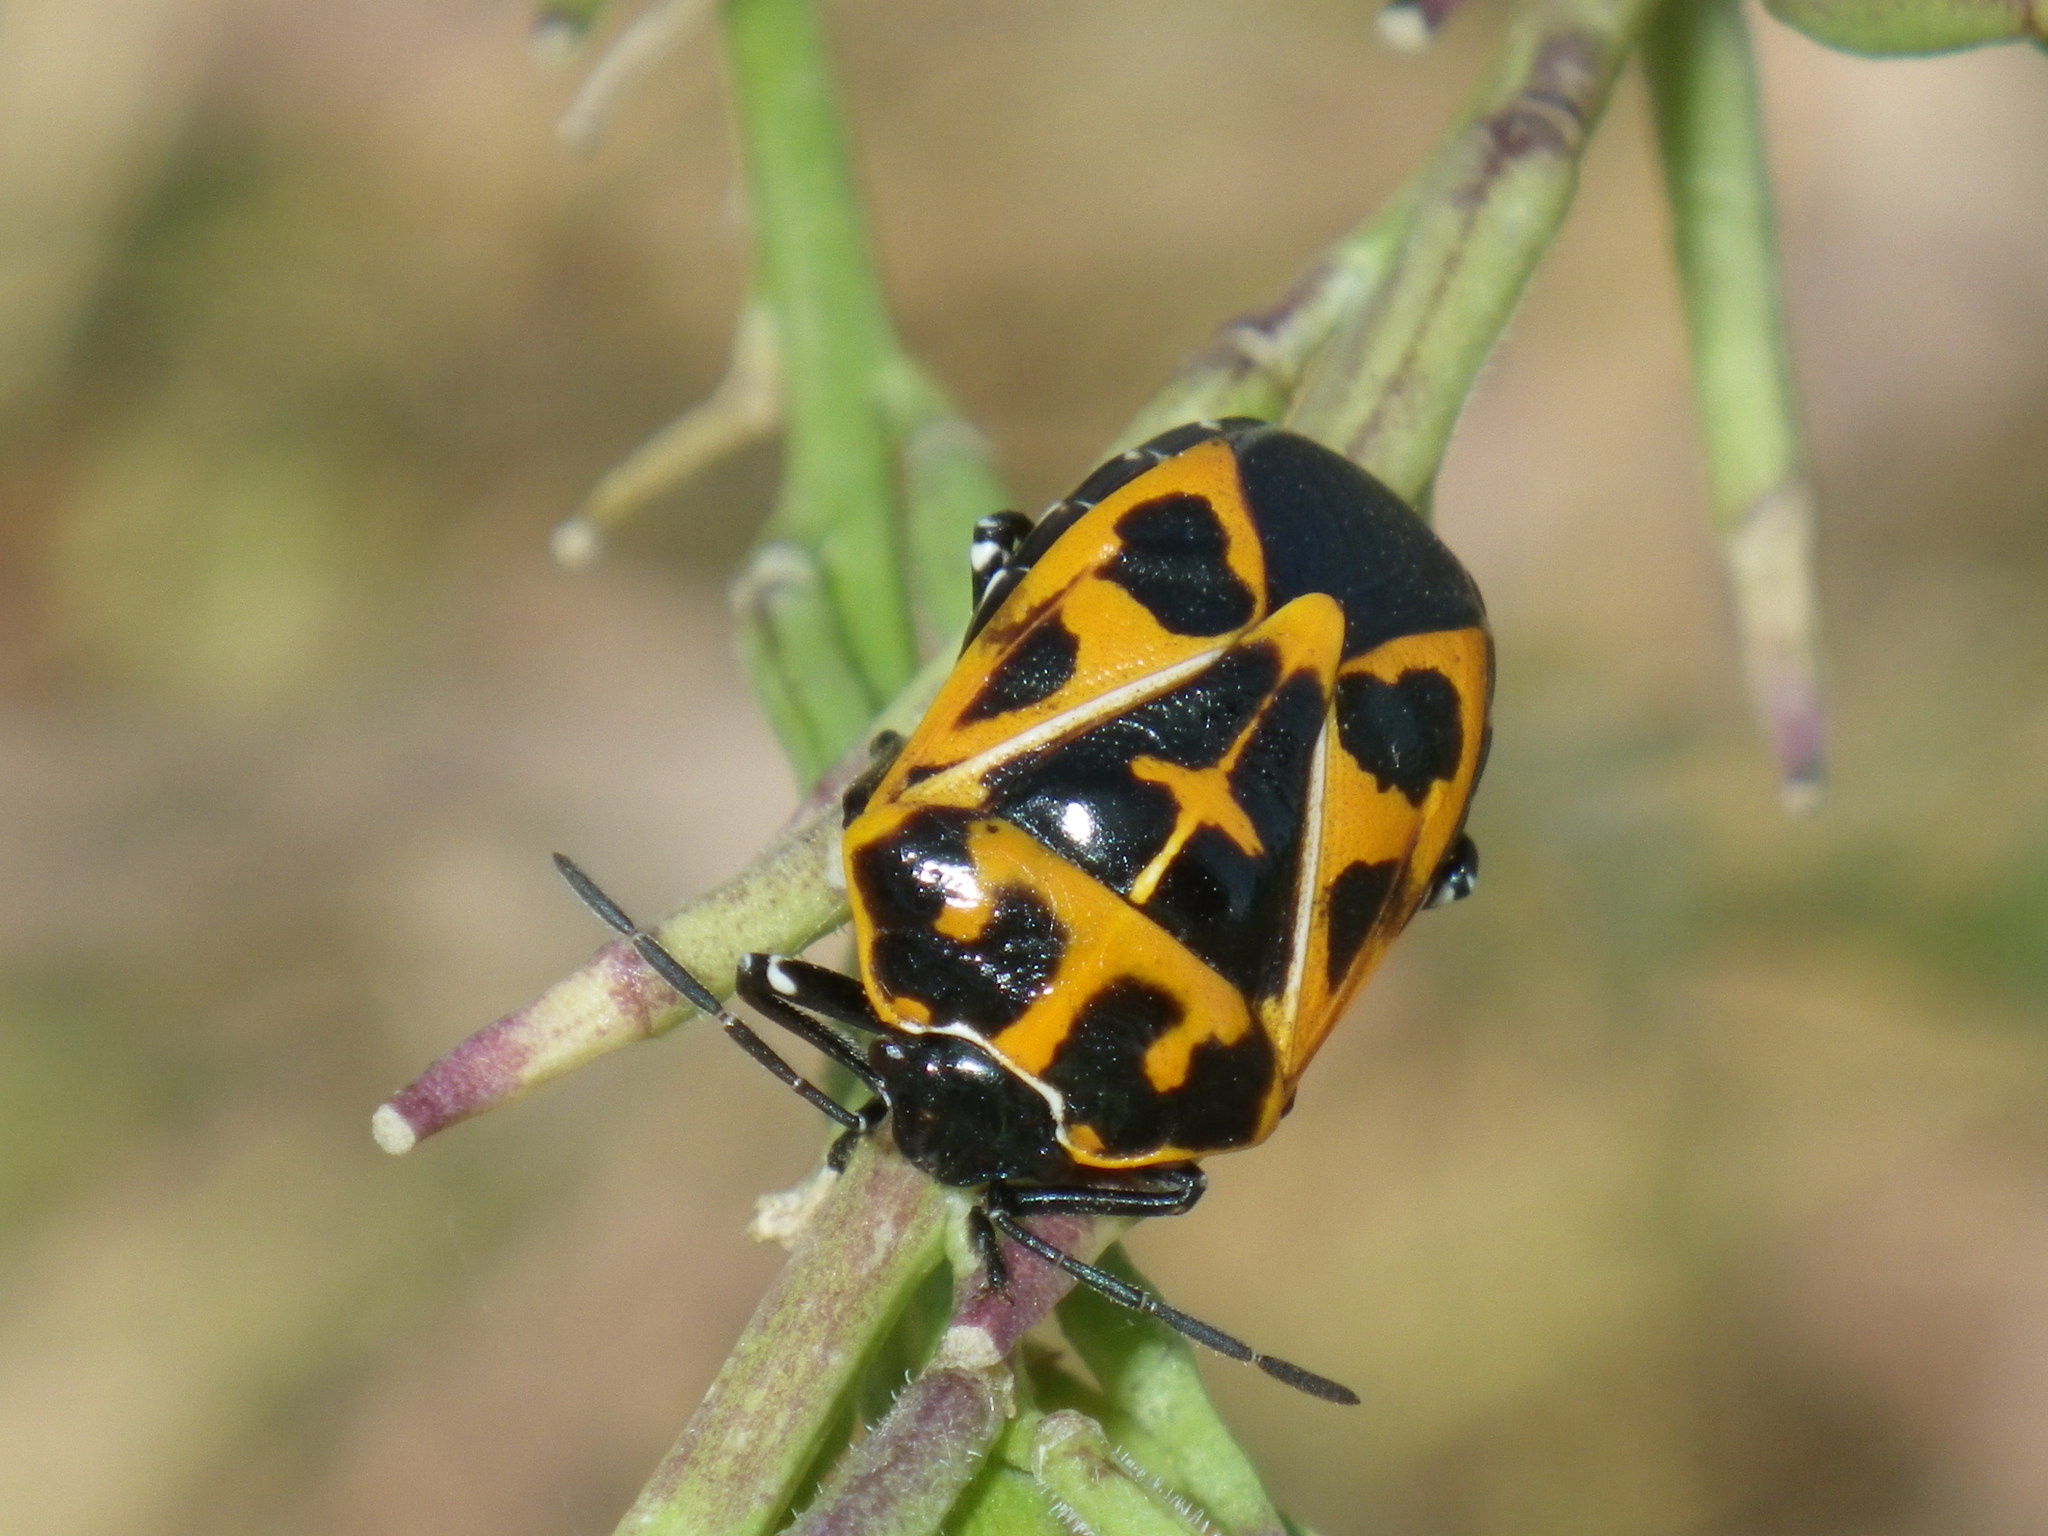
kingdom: Animalia
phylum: Arthropoda
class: Insecta
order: Hemiptera
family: Pentatomidae
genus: Murgantia
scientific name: Murgantia histrionica
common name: Harlequin bug
